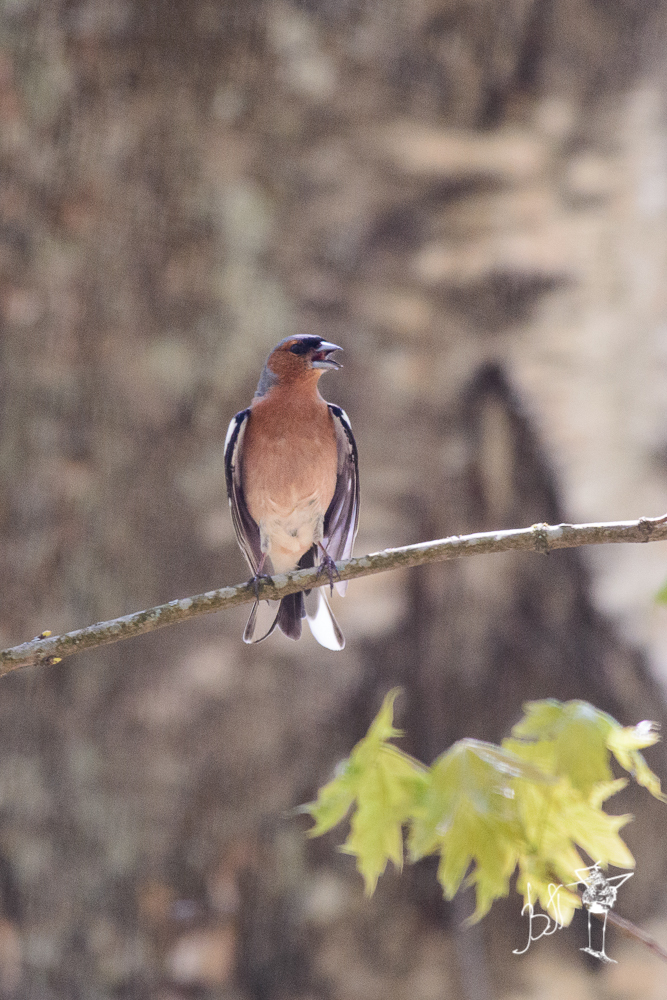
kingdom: Animalia
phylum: Chordata
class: Aves
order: Passeriformes
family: Fringillidae
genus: Fringilla
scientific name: Fringilla coelebs
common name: Common chaffinch
